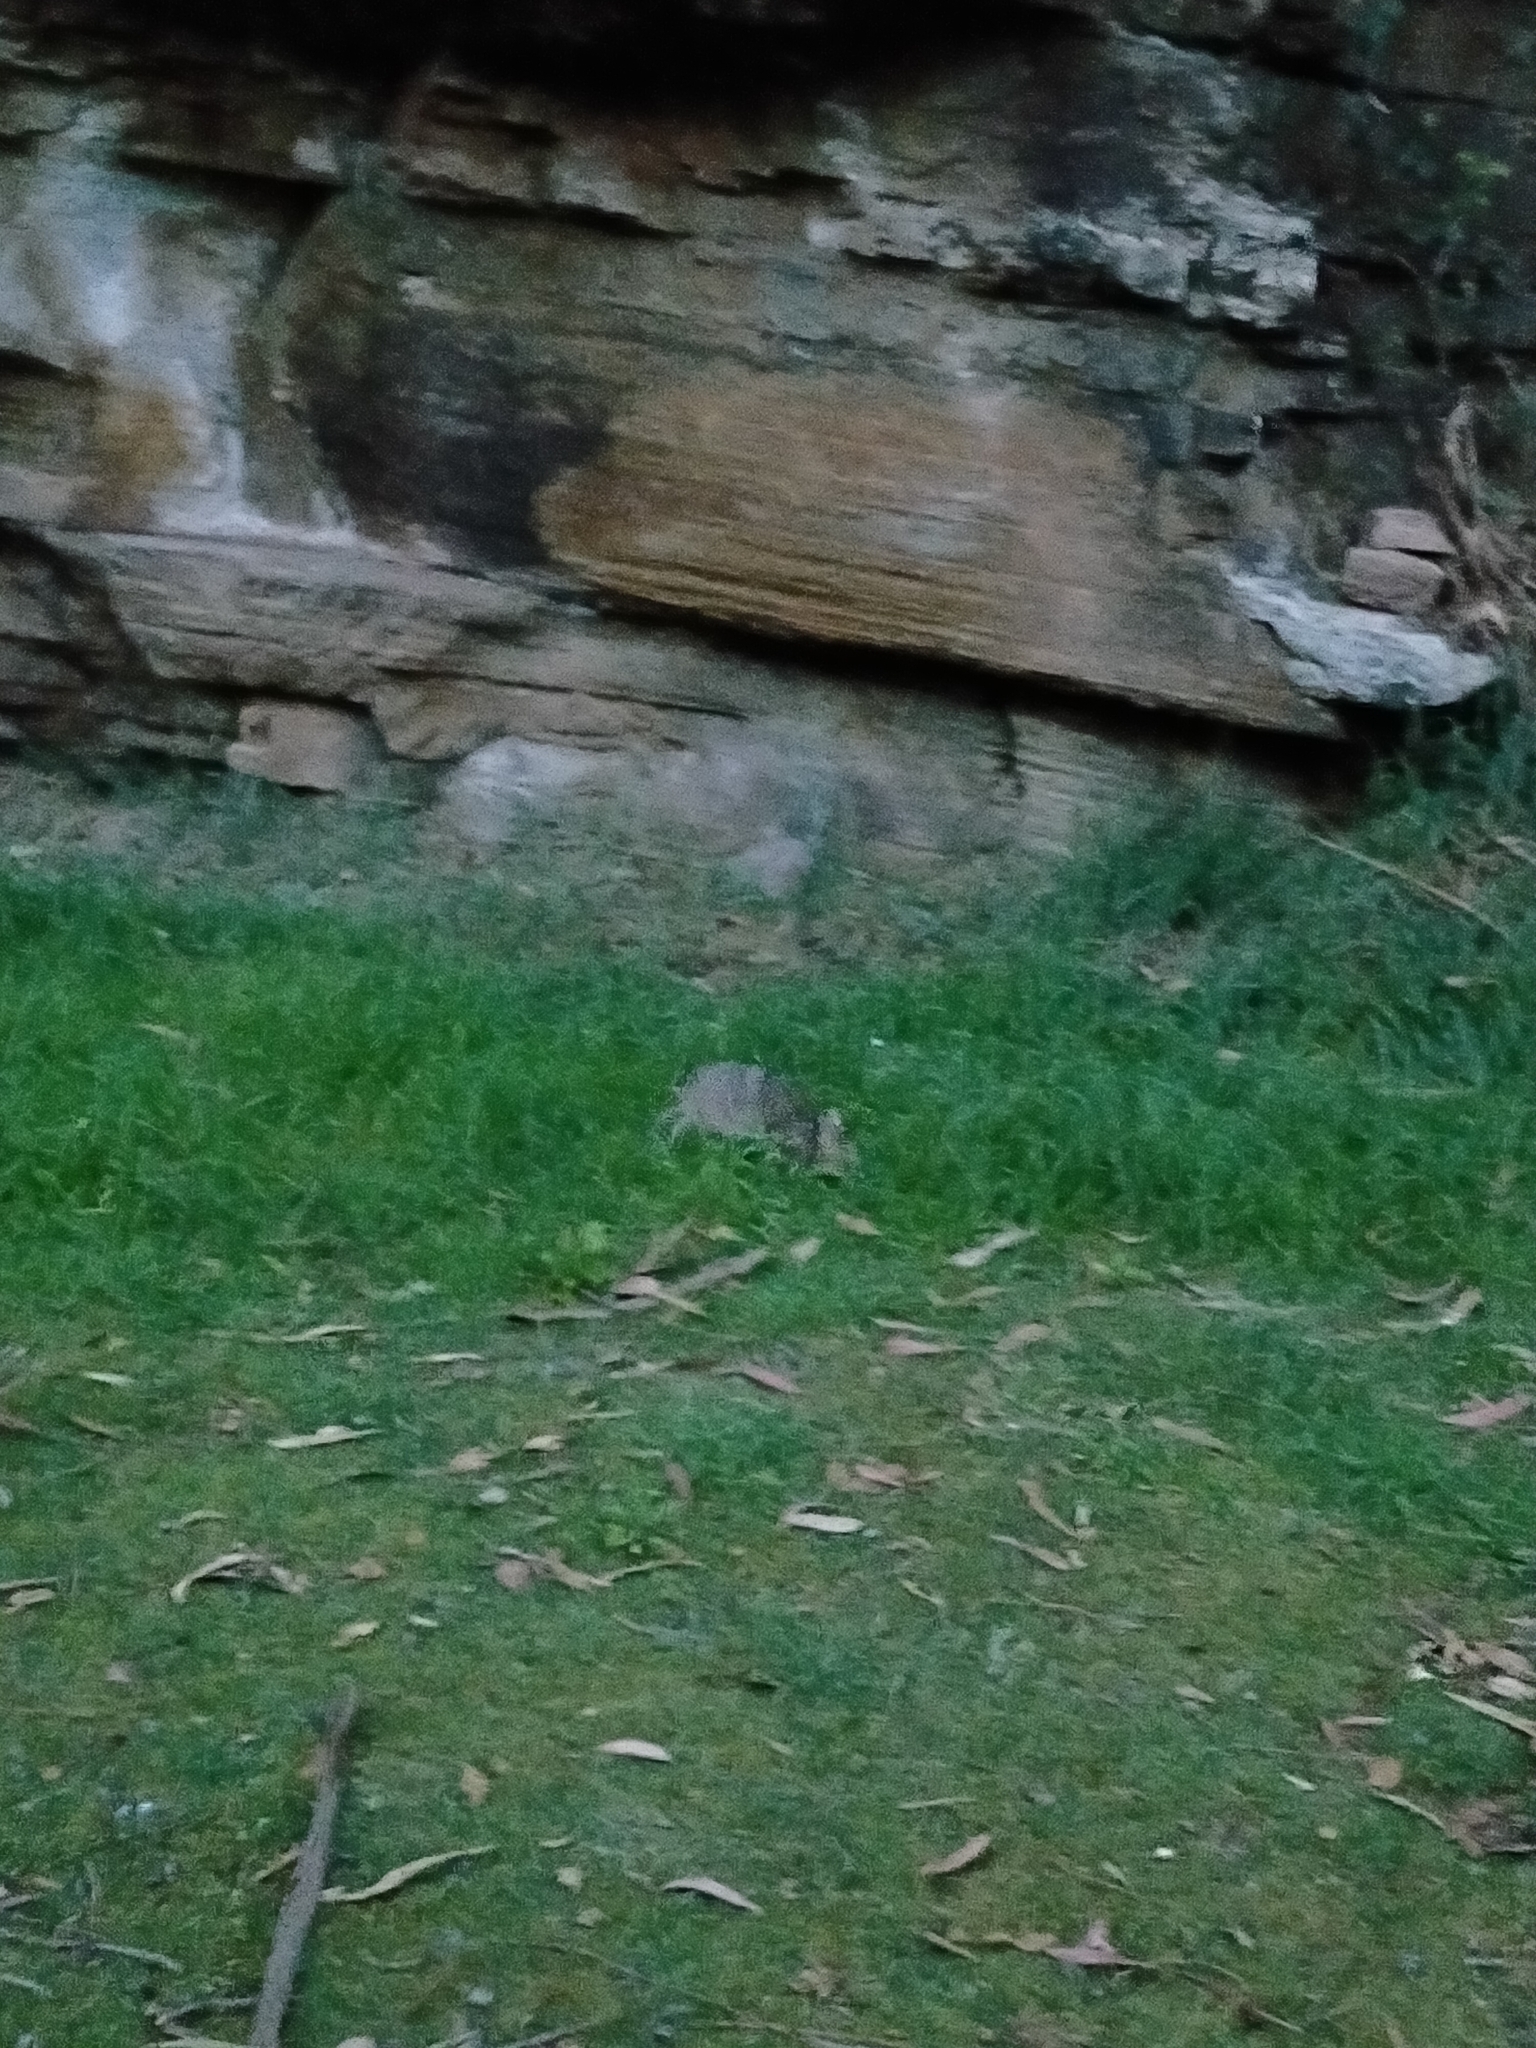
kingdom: Animalia
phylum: Chordata
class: Mammalia
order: Peramelemorphia
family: Peramelidae
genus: Perameles
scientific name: Perameles gunnii
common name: Eastern barred bandicoot
